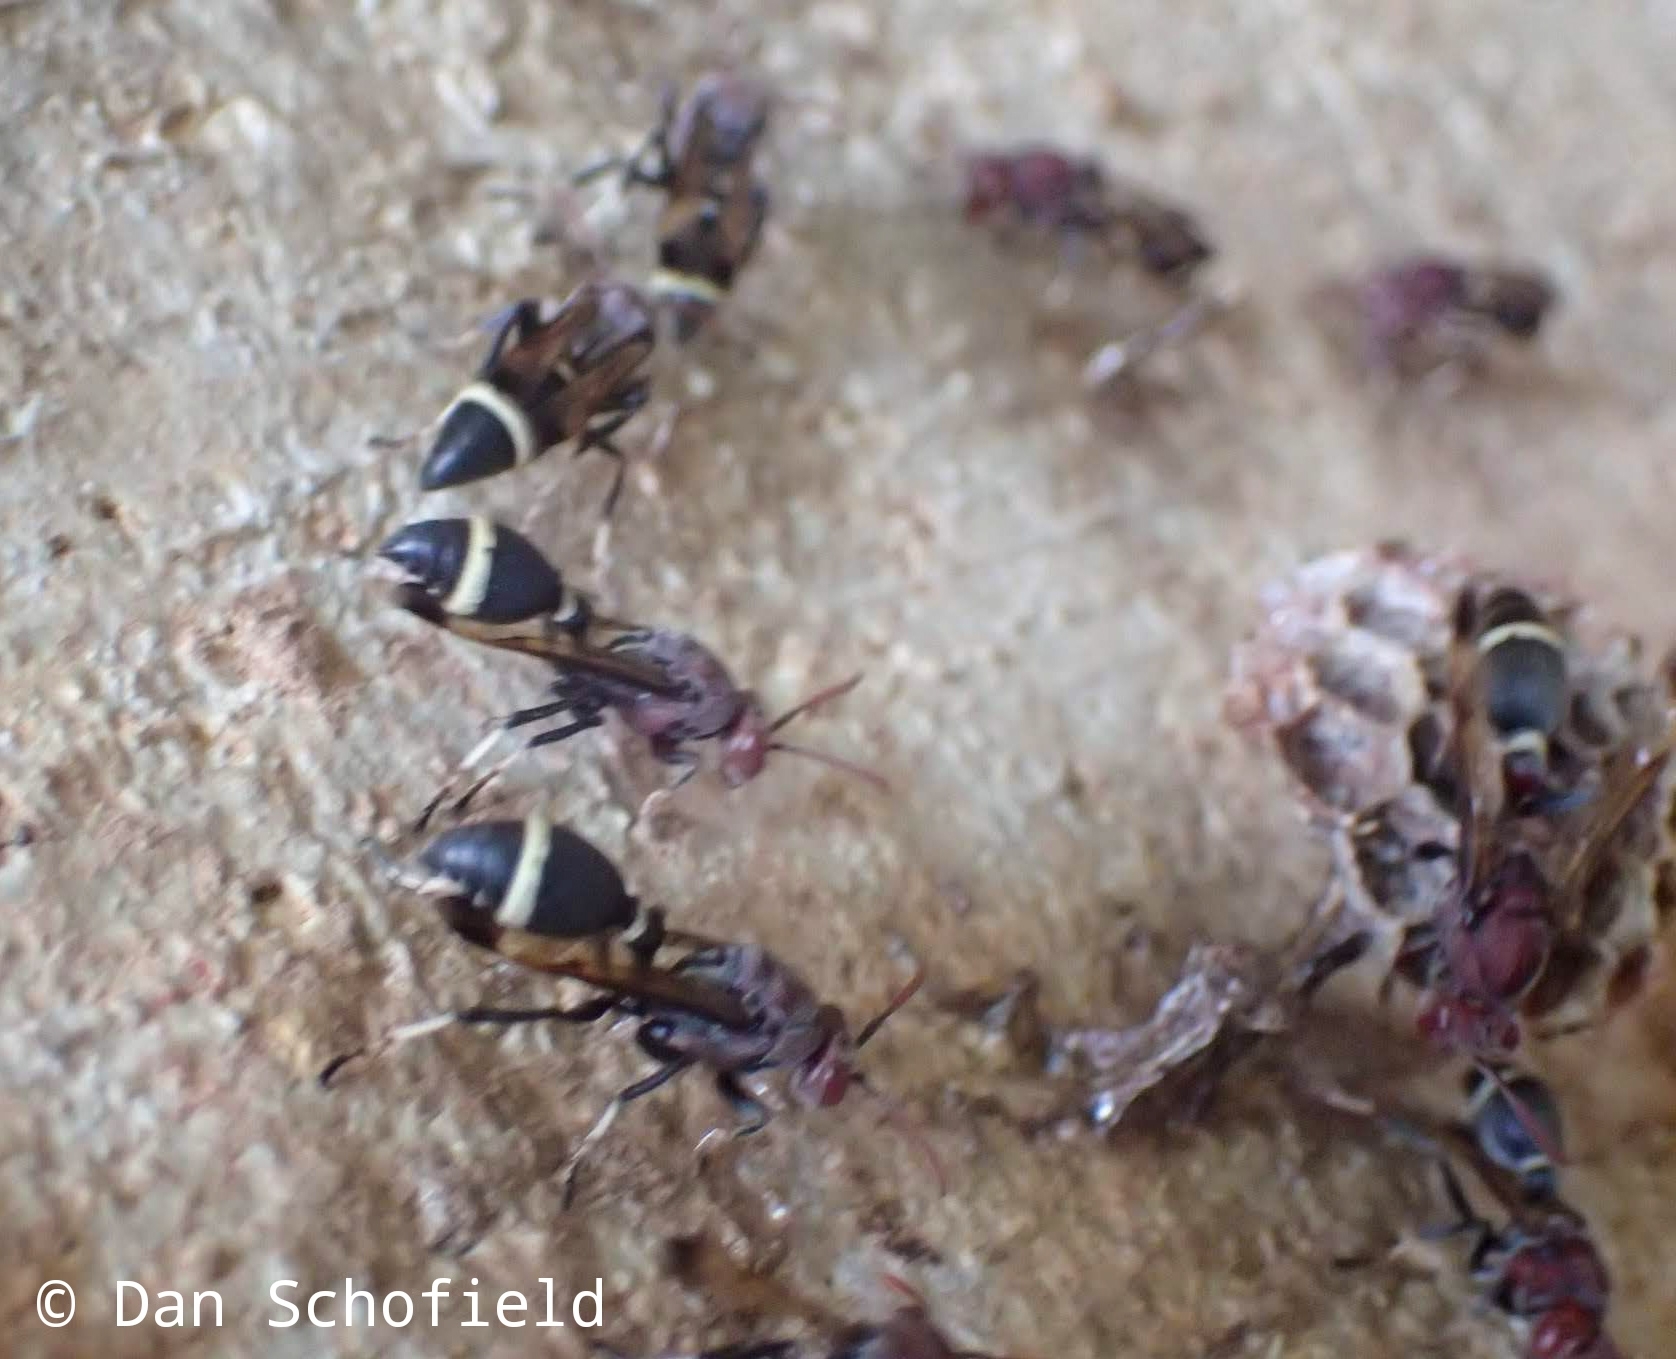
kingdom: Animalia
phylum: Arthropoda
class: Insecta
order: Hymenoptera
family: Vespidae
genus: Ropalidia
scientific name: Ropalidia magnanima
